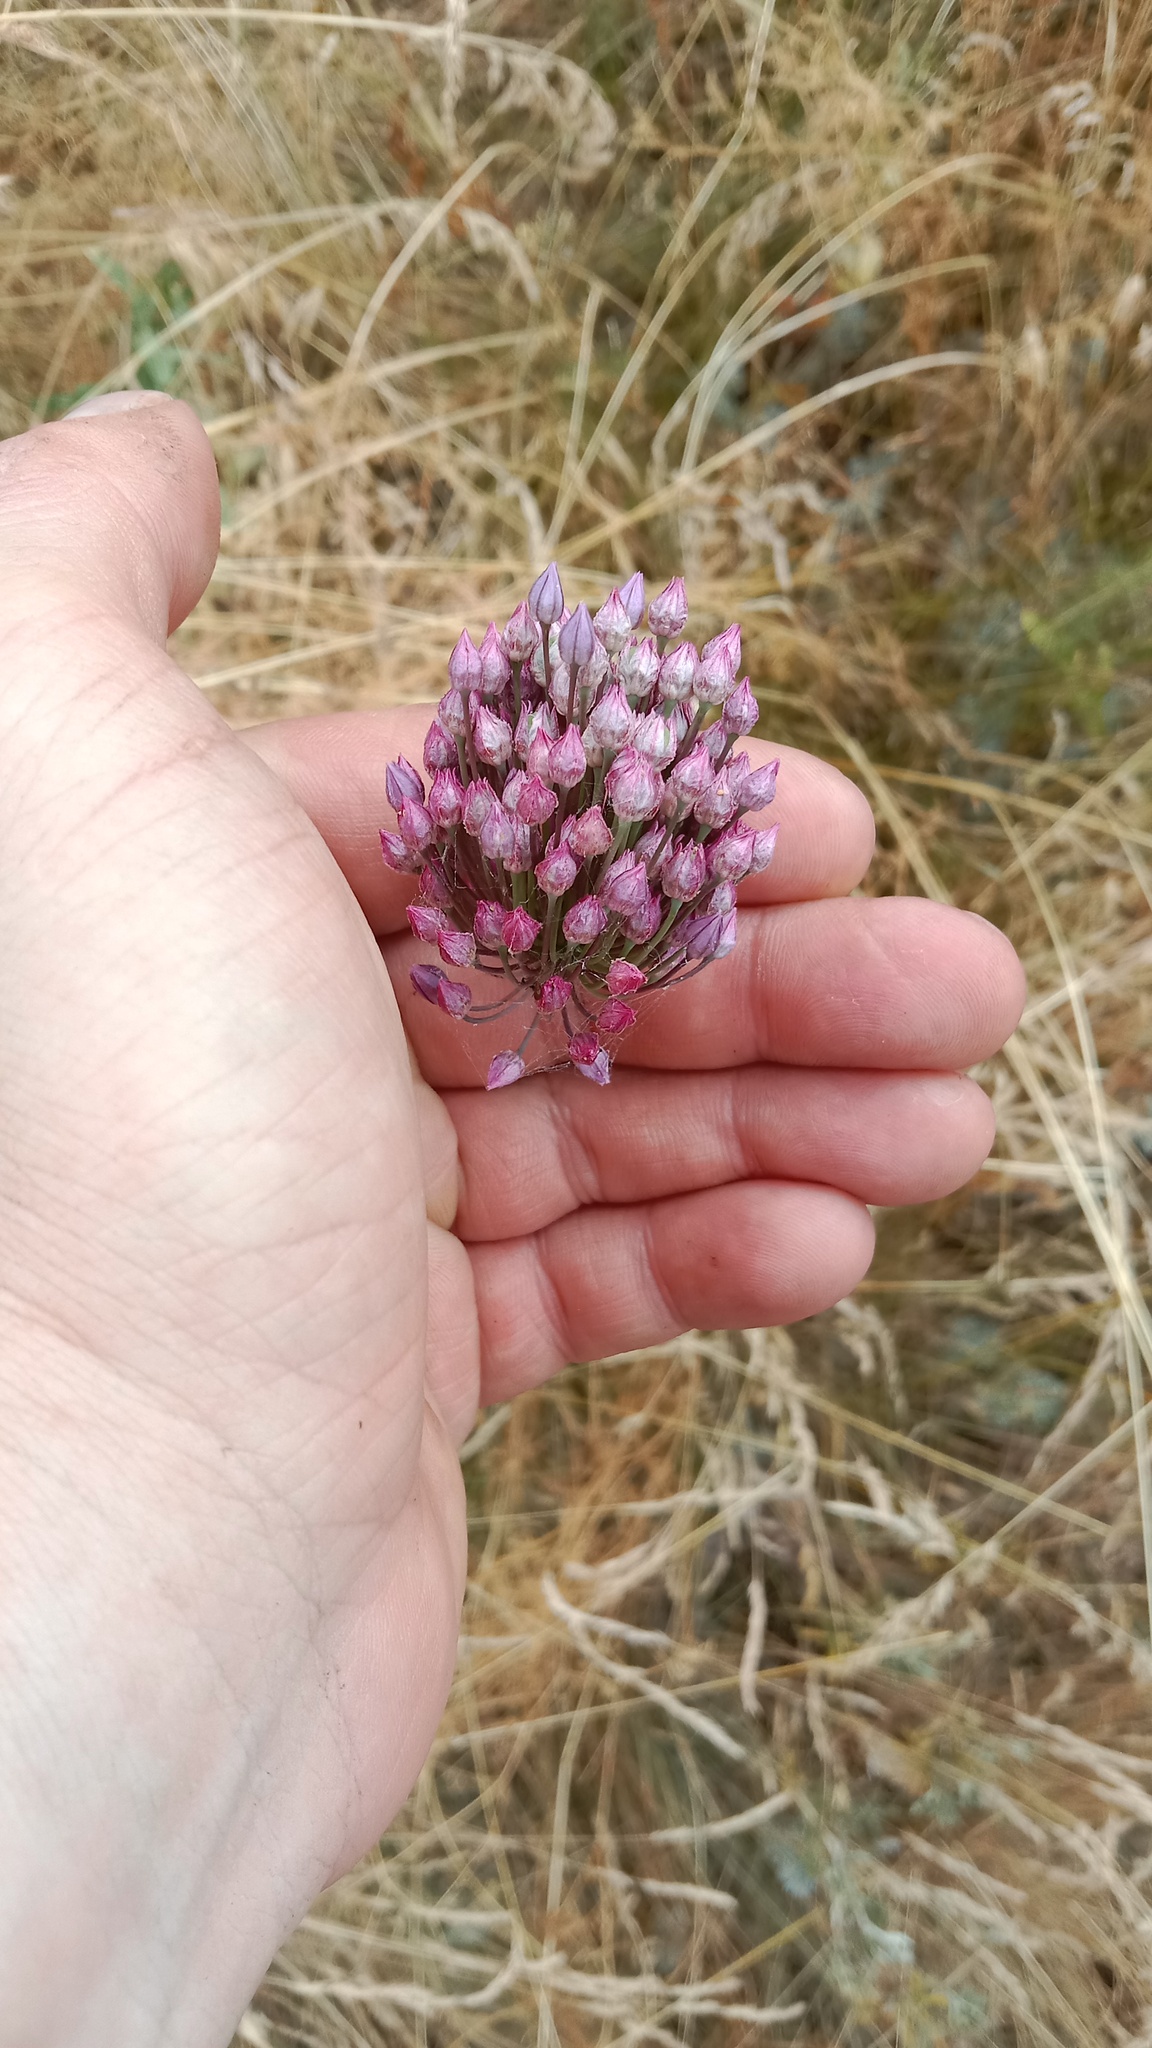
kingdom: Plantae
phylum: Tracheophyta
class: Liliopsida
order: Asparagales
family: Amaryllidaceae
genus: Allium
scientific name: Allium rotundum
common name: Sand leek
